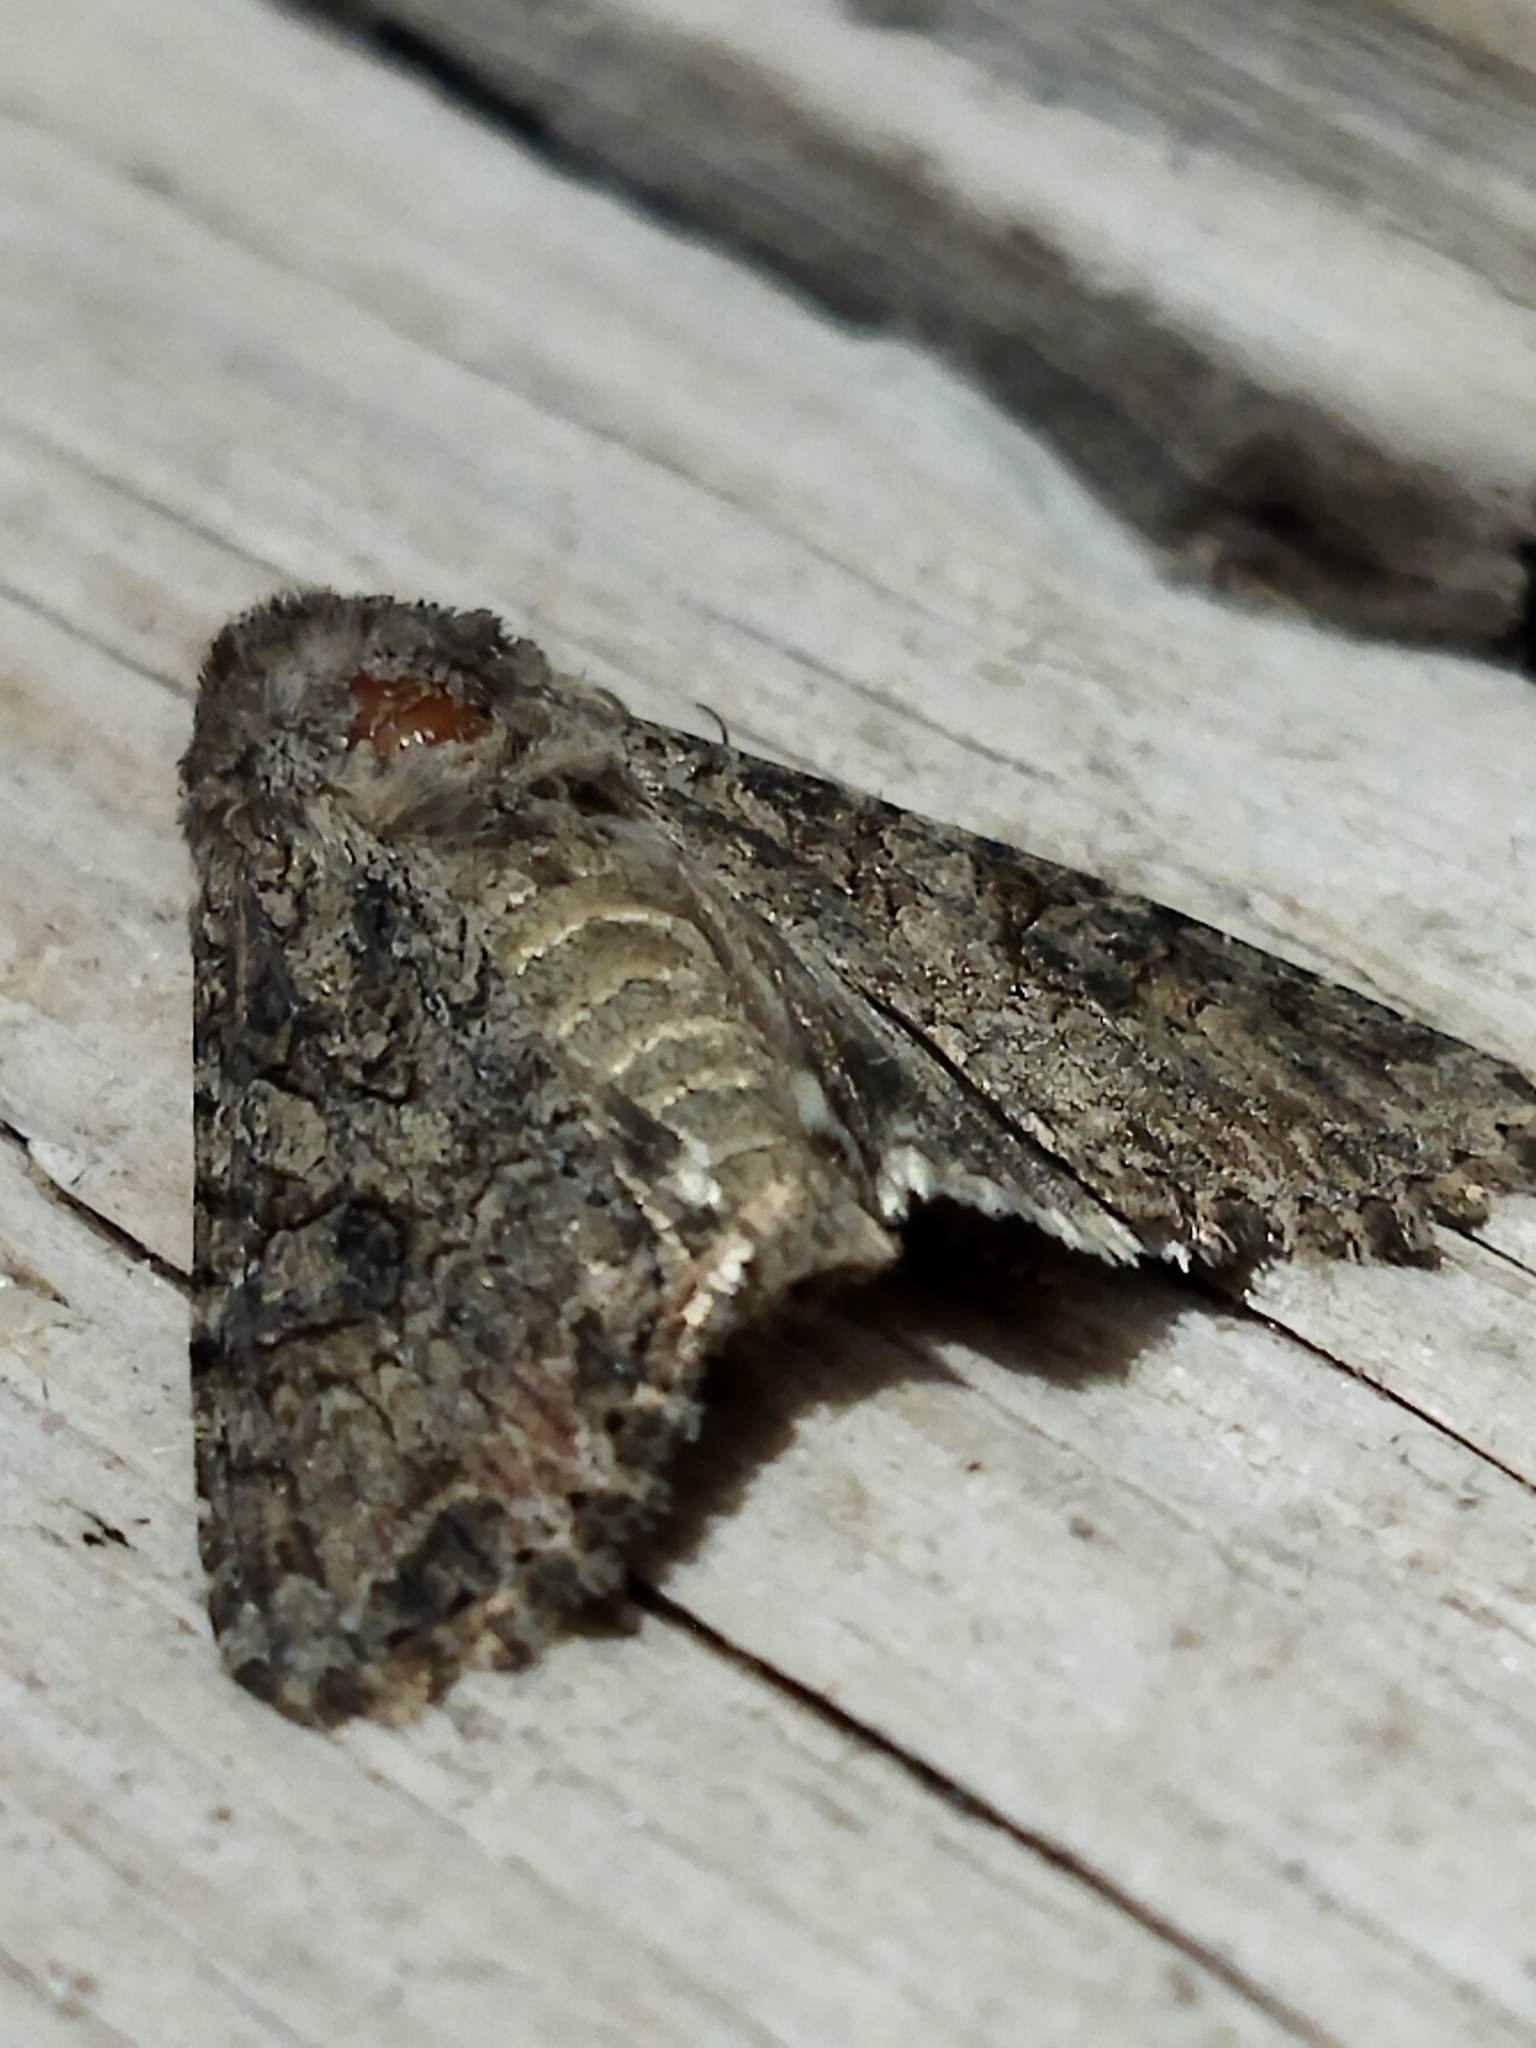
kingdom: Animalia
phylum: Arthropoda
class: Insecta
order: Lepidoptera
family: Noctuidae
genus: Anarta
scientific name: Anarta trifolii
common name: Clover cutworm moth
